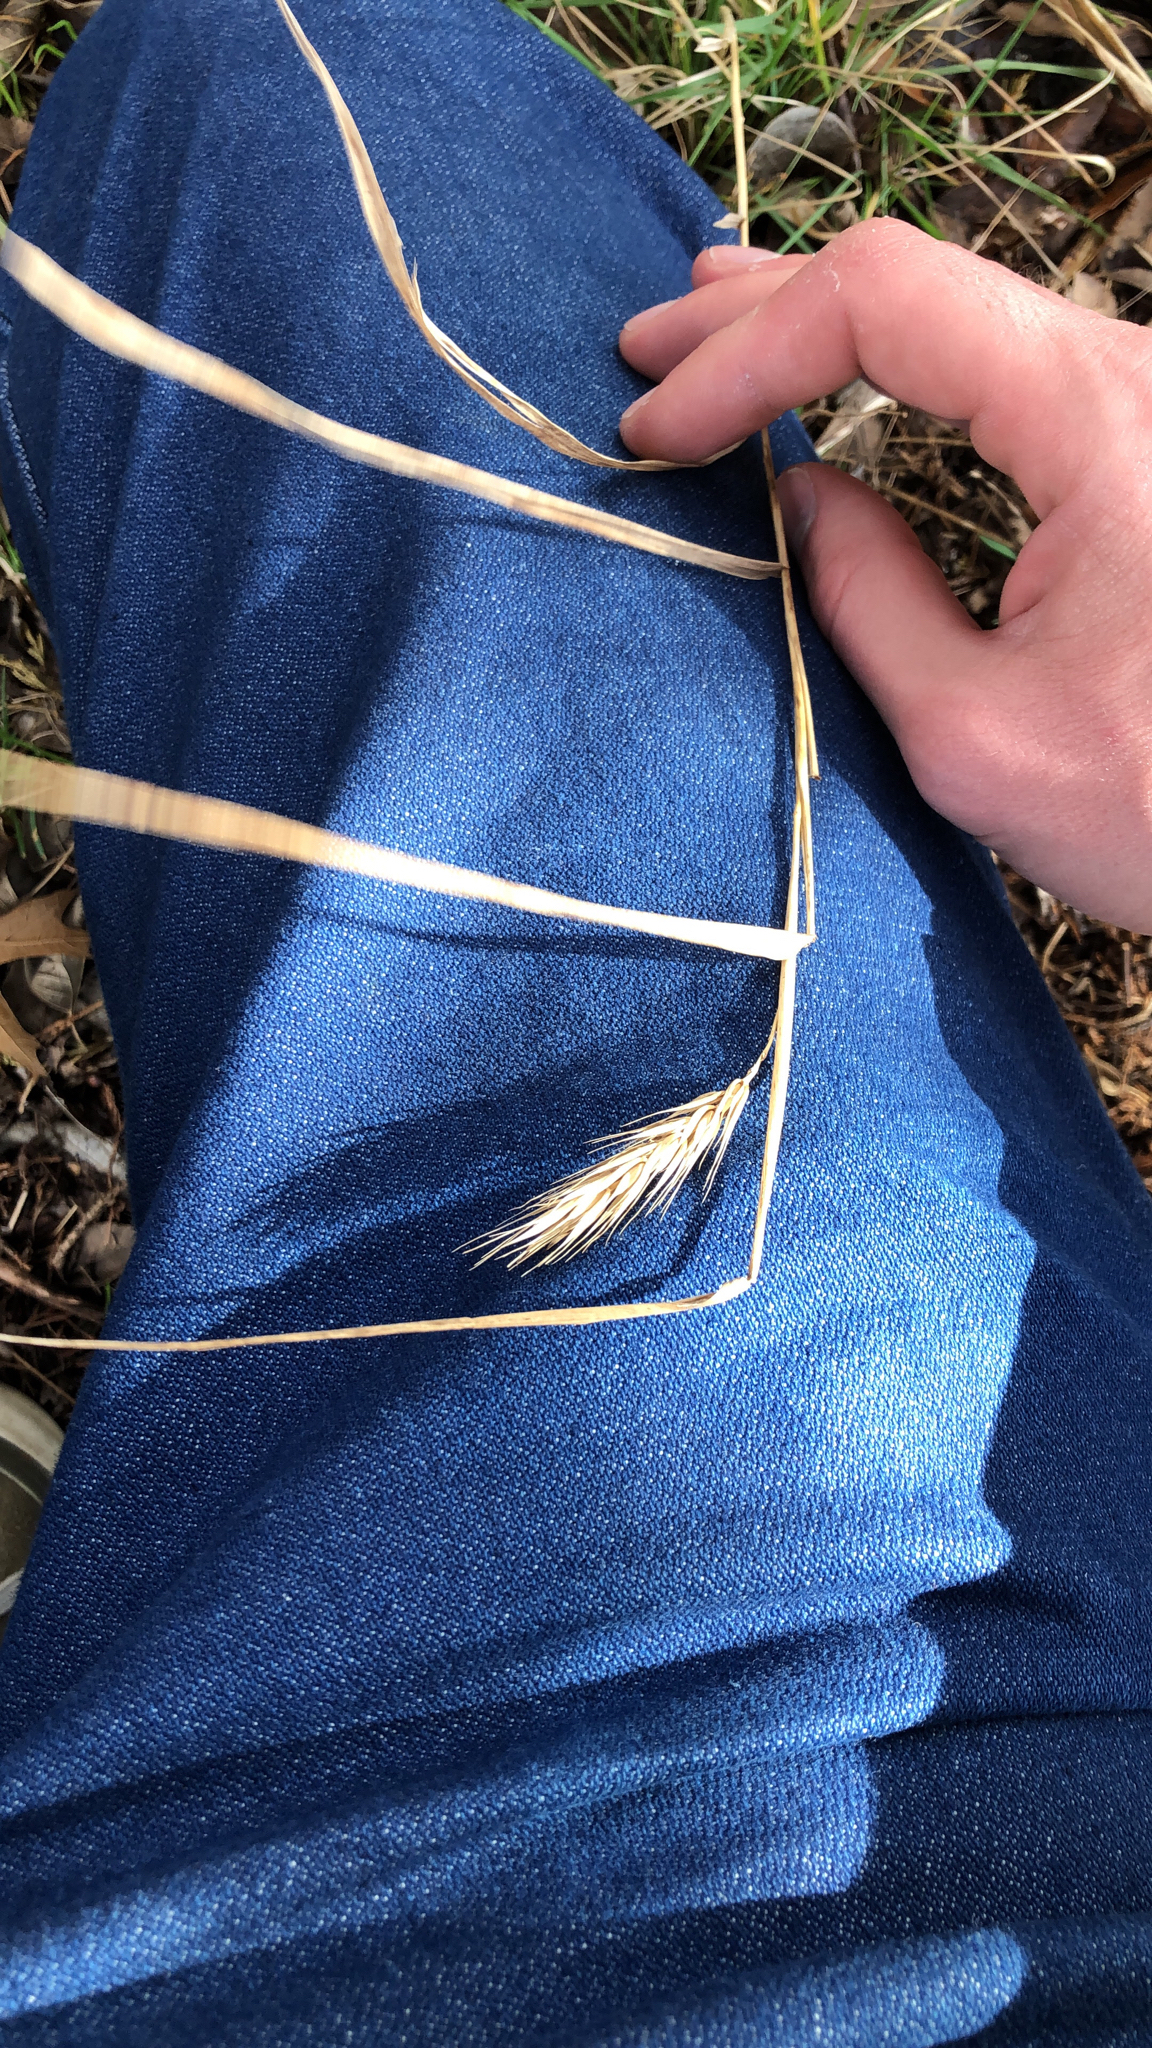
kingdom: Plantae
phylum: Tracheophyta
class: Liliopsida
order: Poales
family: Poaceae
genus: Elymus
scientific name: Elymus virginicus
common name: Common eastern wildrye
